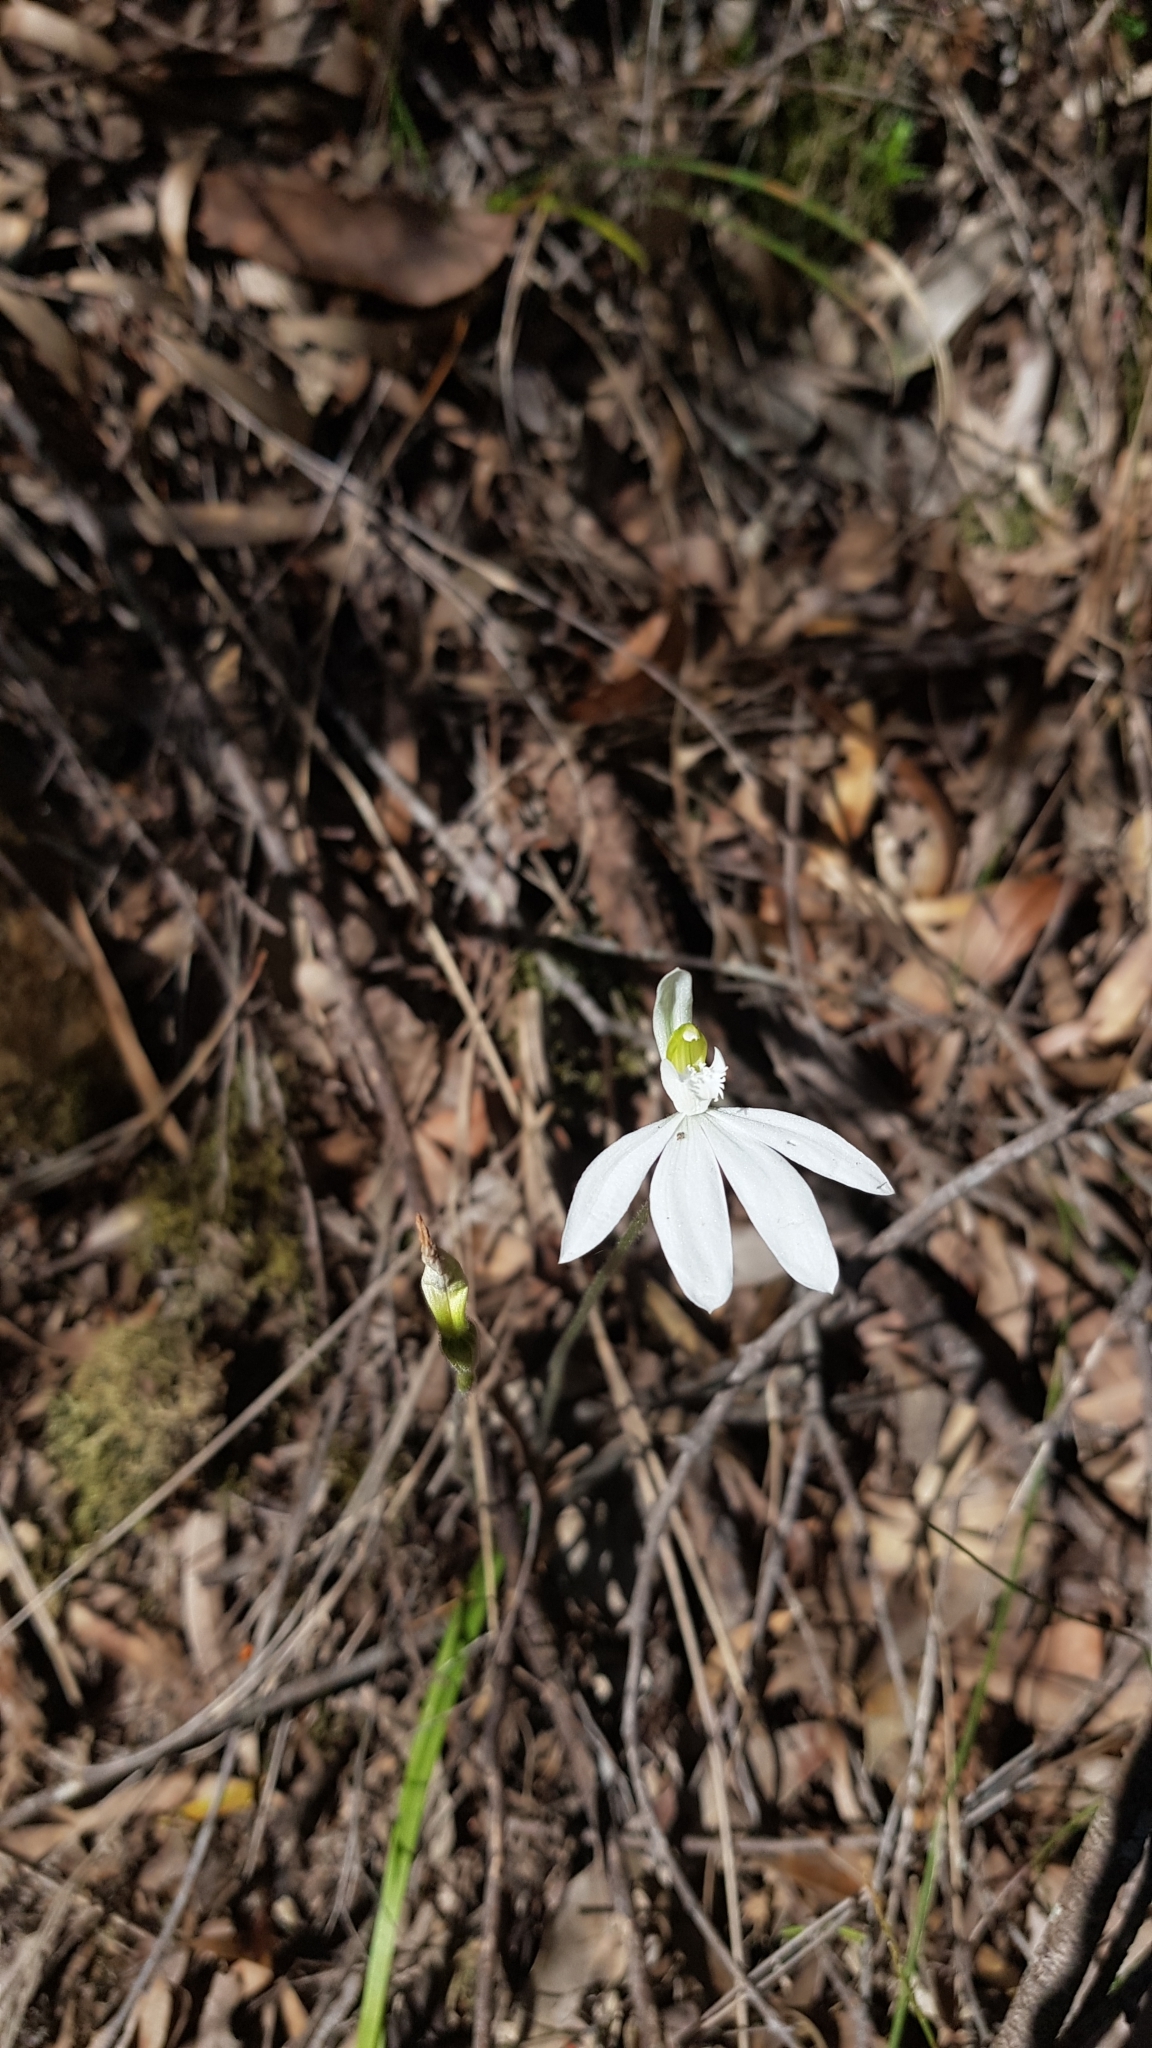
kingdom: Plantae
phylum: Tracheophyta
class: Liliopsida
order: Asparagales
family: Orchidaceae
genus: Caladenia
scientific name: Caladenia catenata
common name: White caladenia
